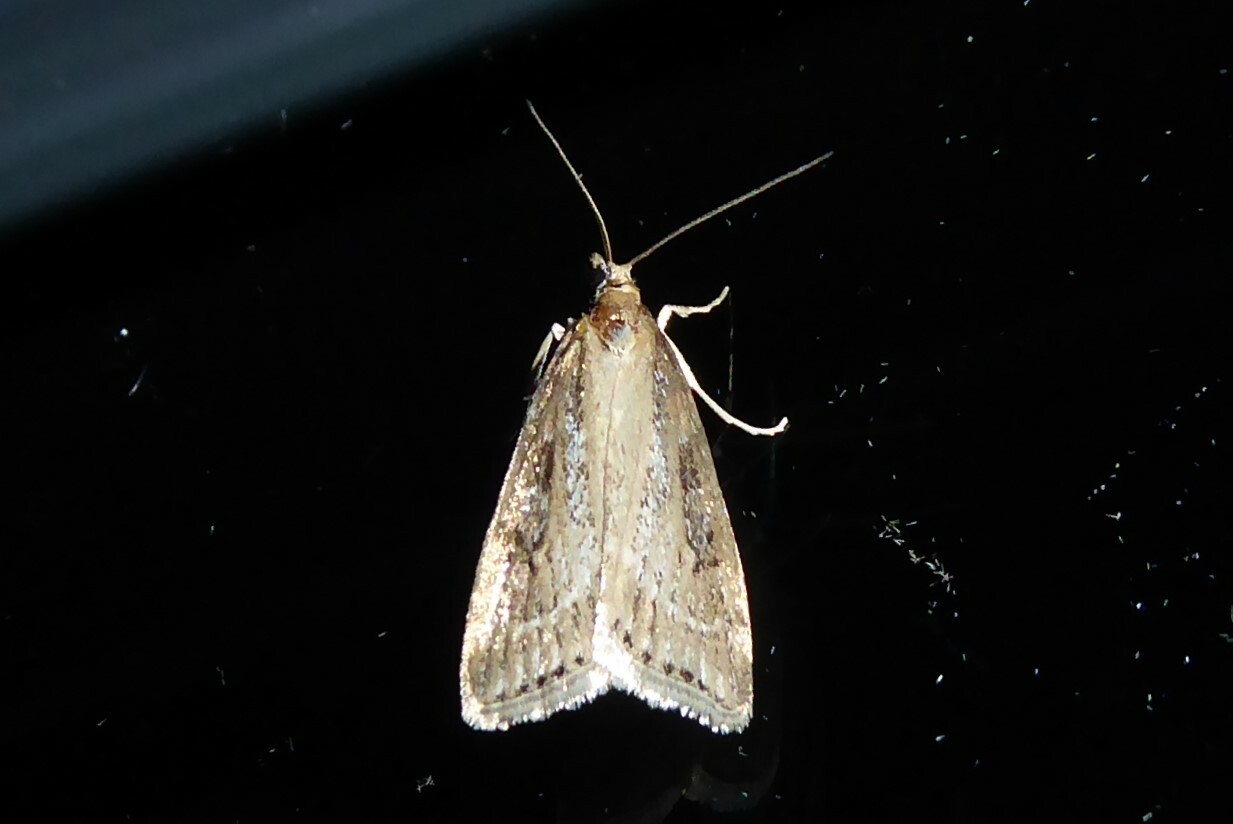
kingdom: Animalia
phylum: Arthropoda
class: Insecta
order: Lepidoptera
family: Crambidae
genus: Eudonia
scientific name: Eudonia octophora
